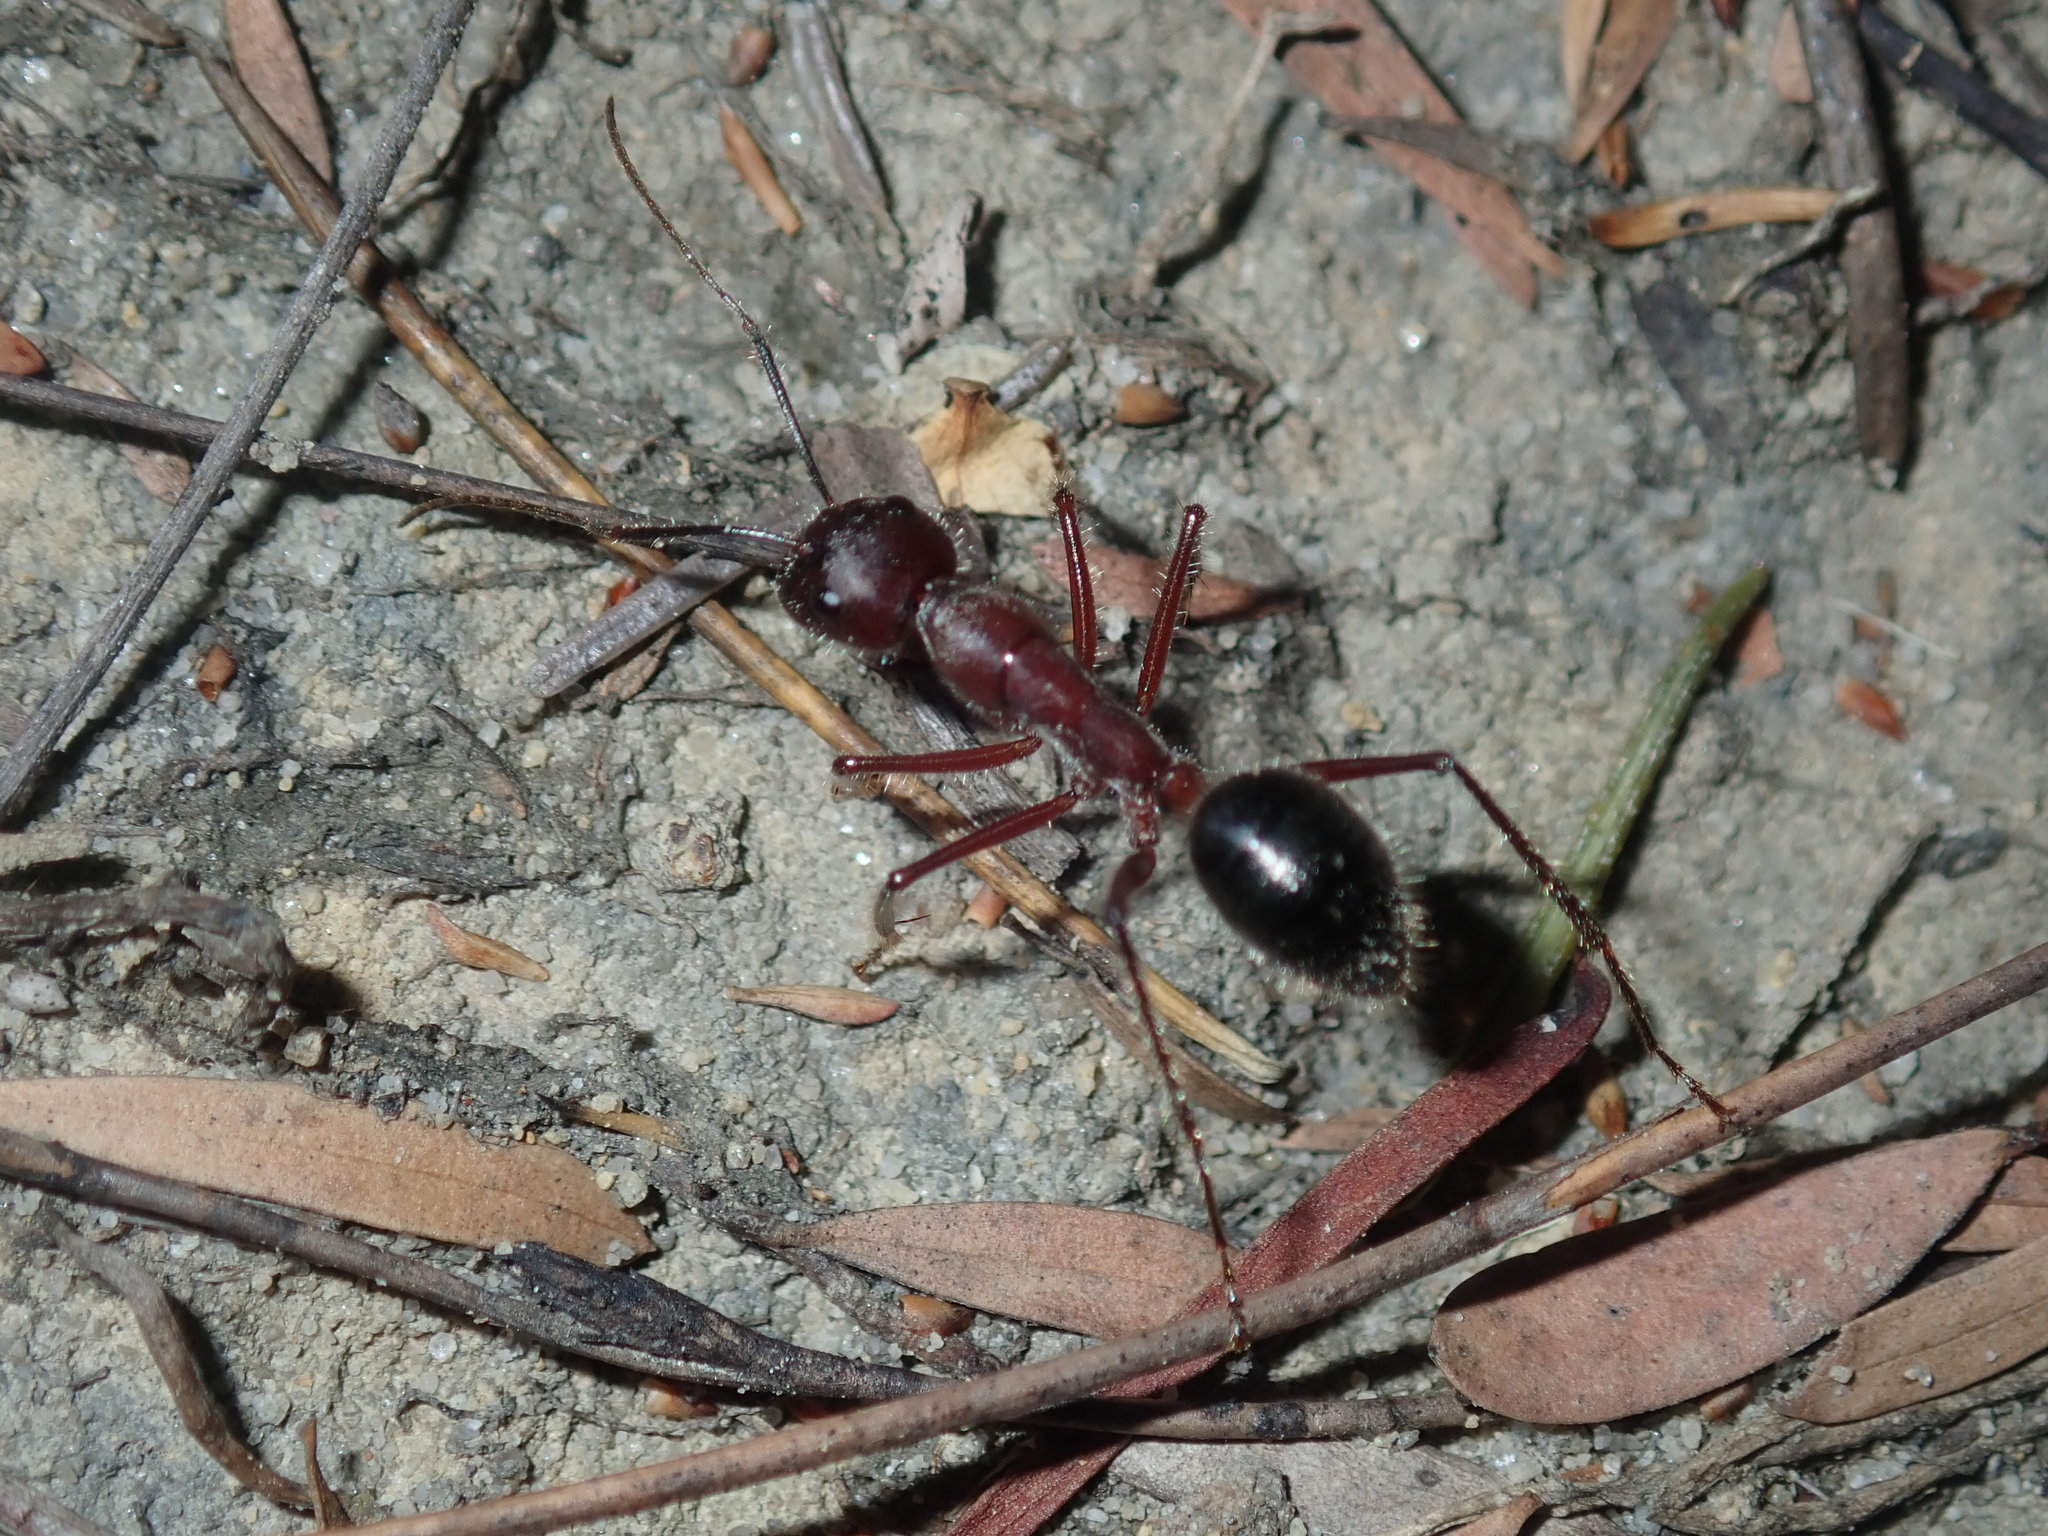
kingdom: Animalia
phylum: Arthropoda
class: Insecta
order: Hymenoptera
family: Formicidae
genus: Camponotus
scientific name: Camponotus intrepidus
